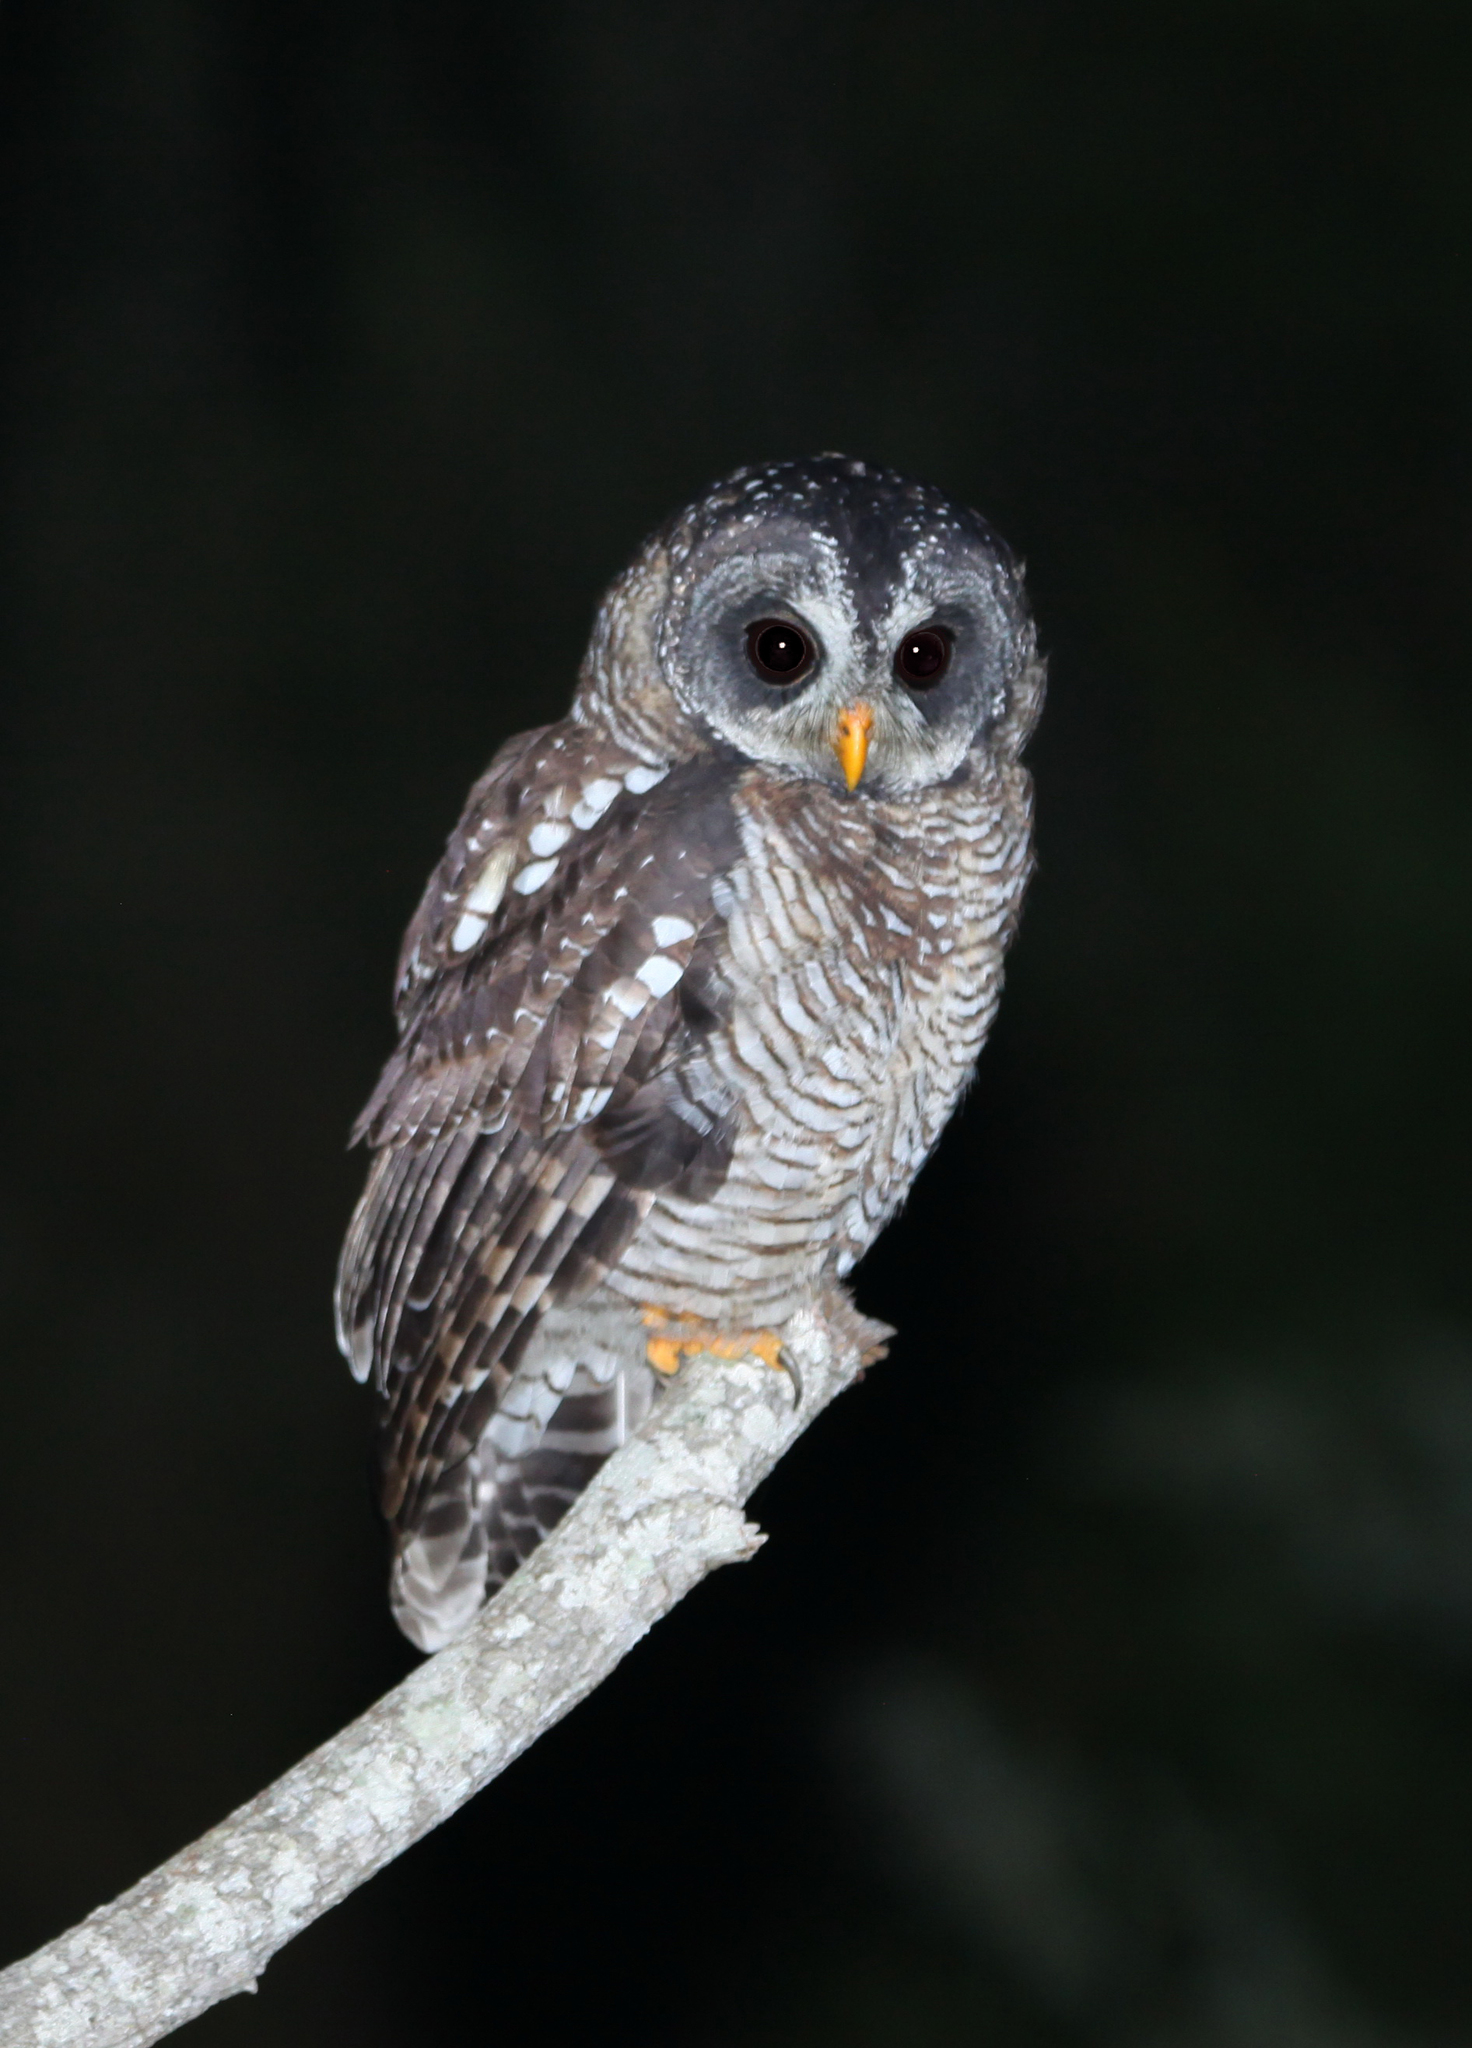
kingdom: Animalia
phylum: Chordata
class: Aves
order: Strigiformes
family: Strigidae
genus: Strix
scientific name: Strix woodfordii
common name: African wood owl
